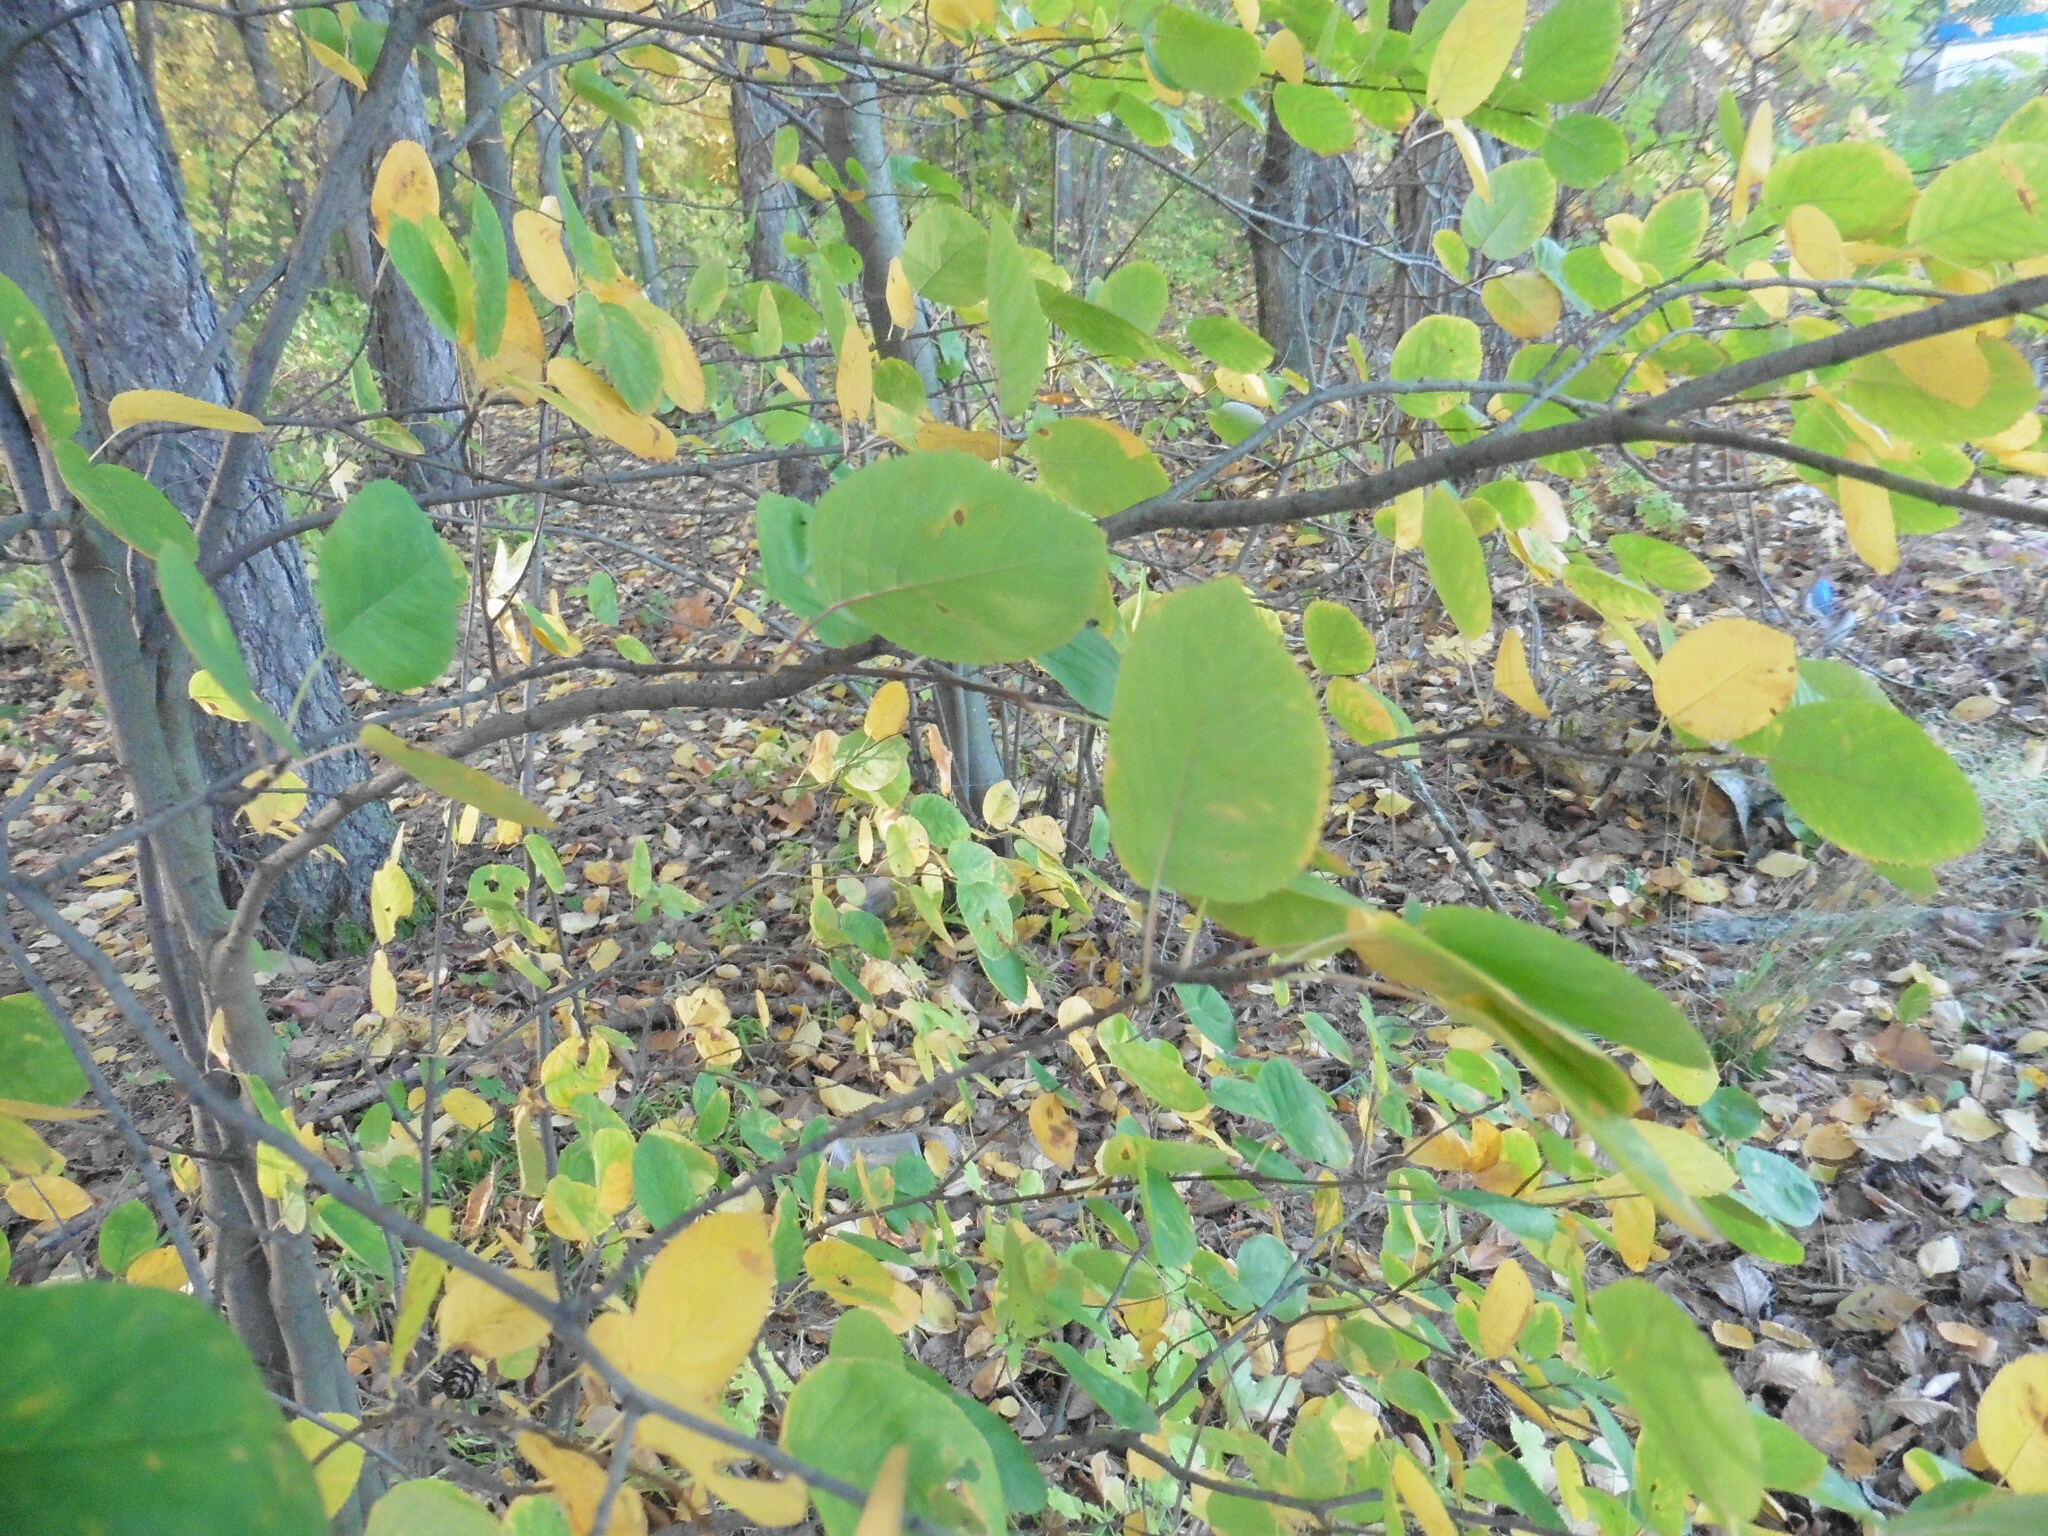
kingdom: Plantae
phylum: Tracheophyta
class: Magnoliopsida
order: Rosales
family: Rosaceae
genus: Amelanchier
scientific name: Amelanchier
